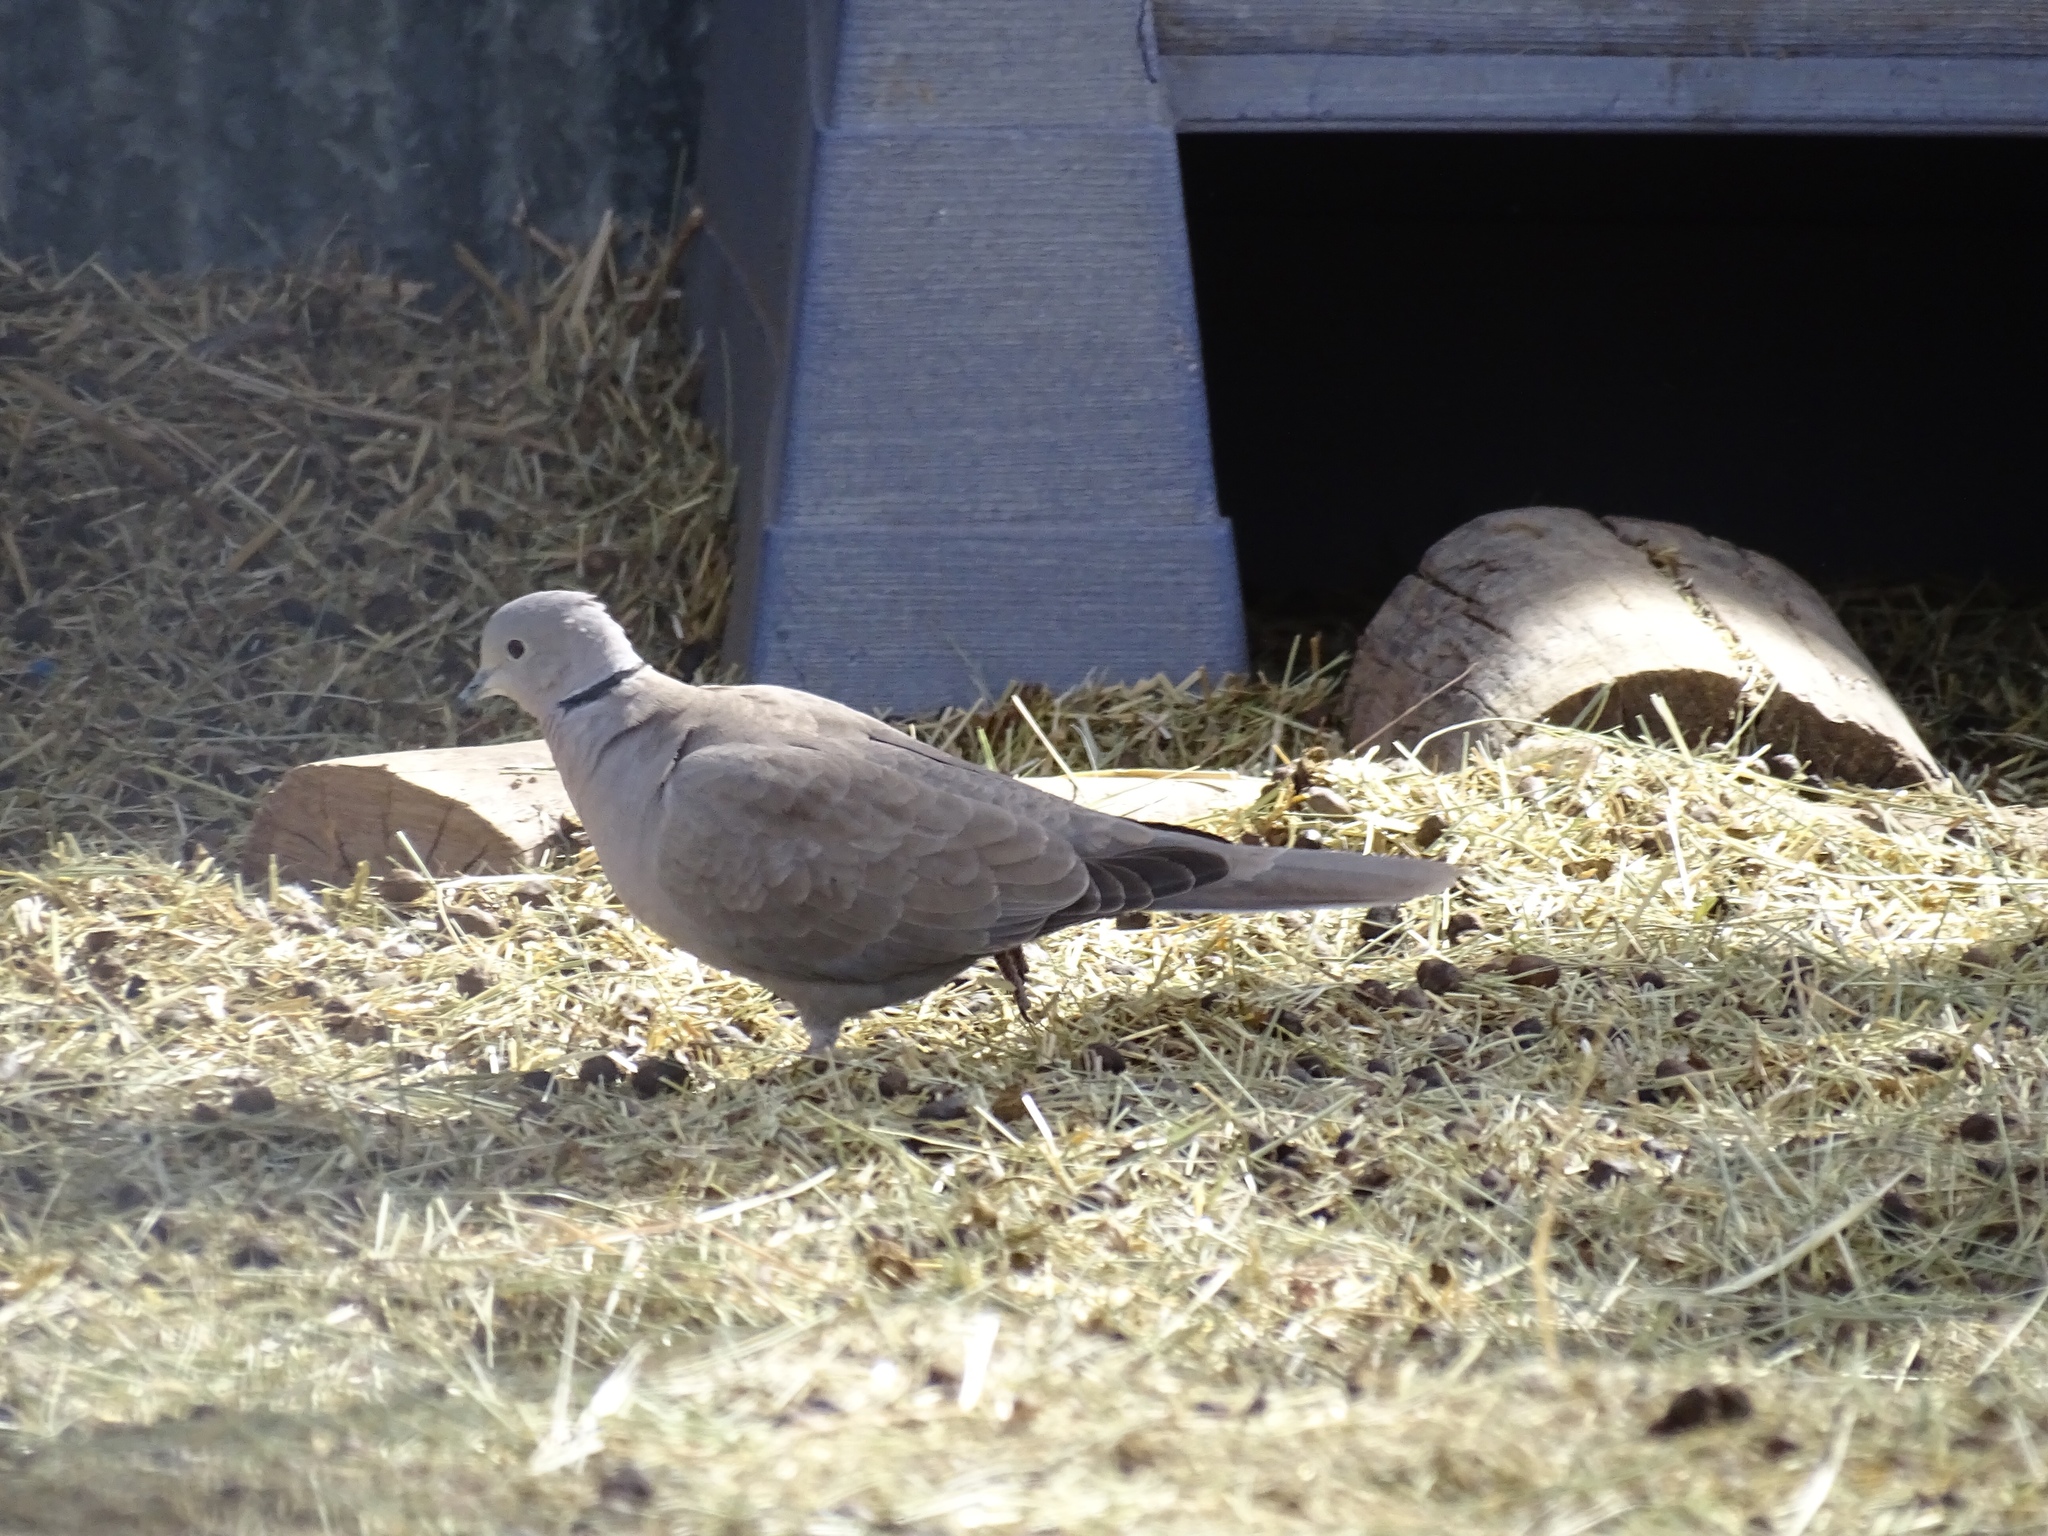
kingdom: Animalia
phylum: Chordata
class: Aves
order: Columbiformes
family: Columbidae
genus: Streptopelia
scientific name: Streptopelia decaocto
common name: Eurasian collared dove
